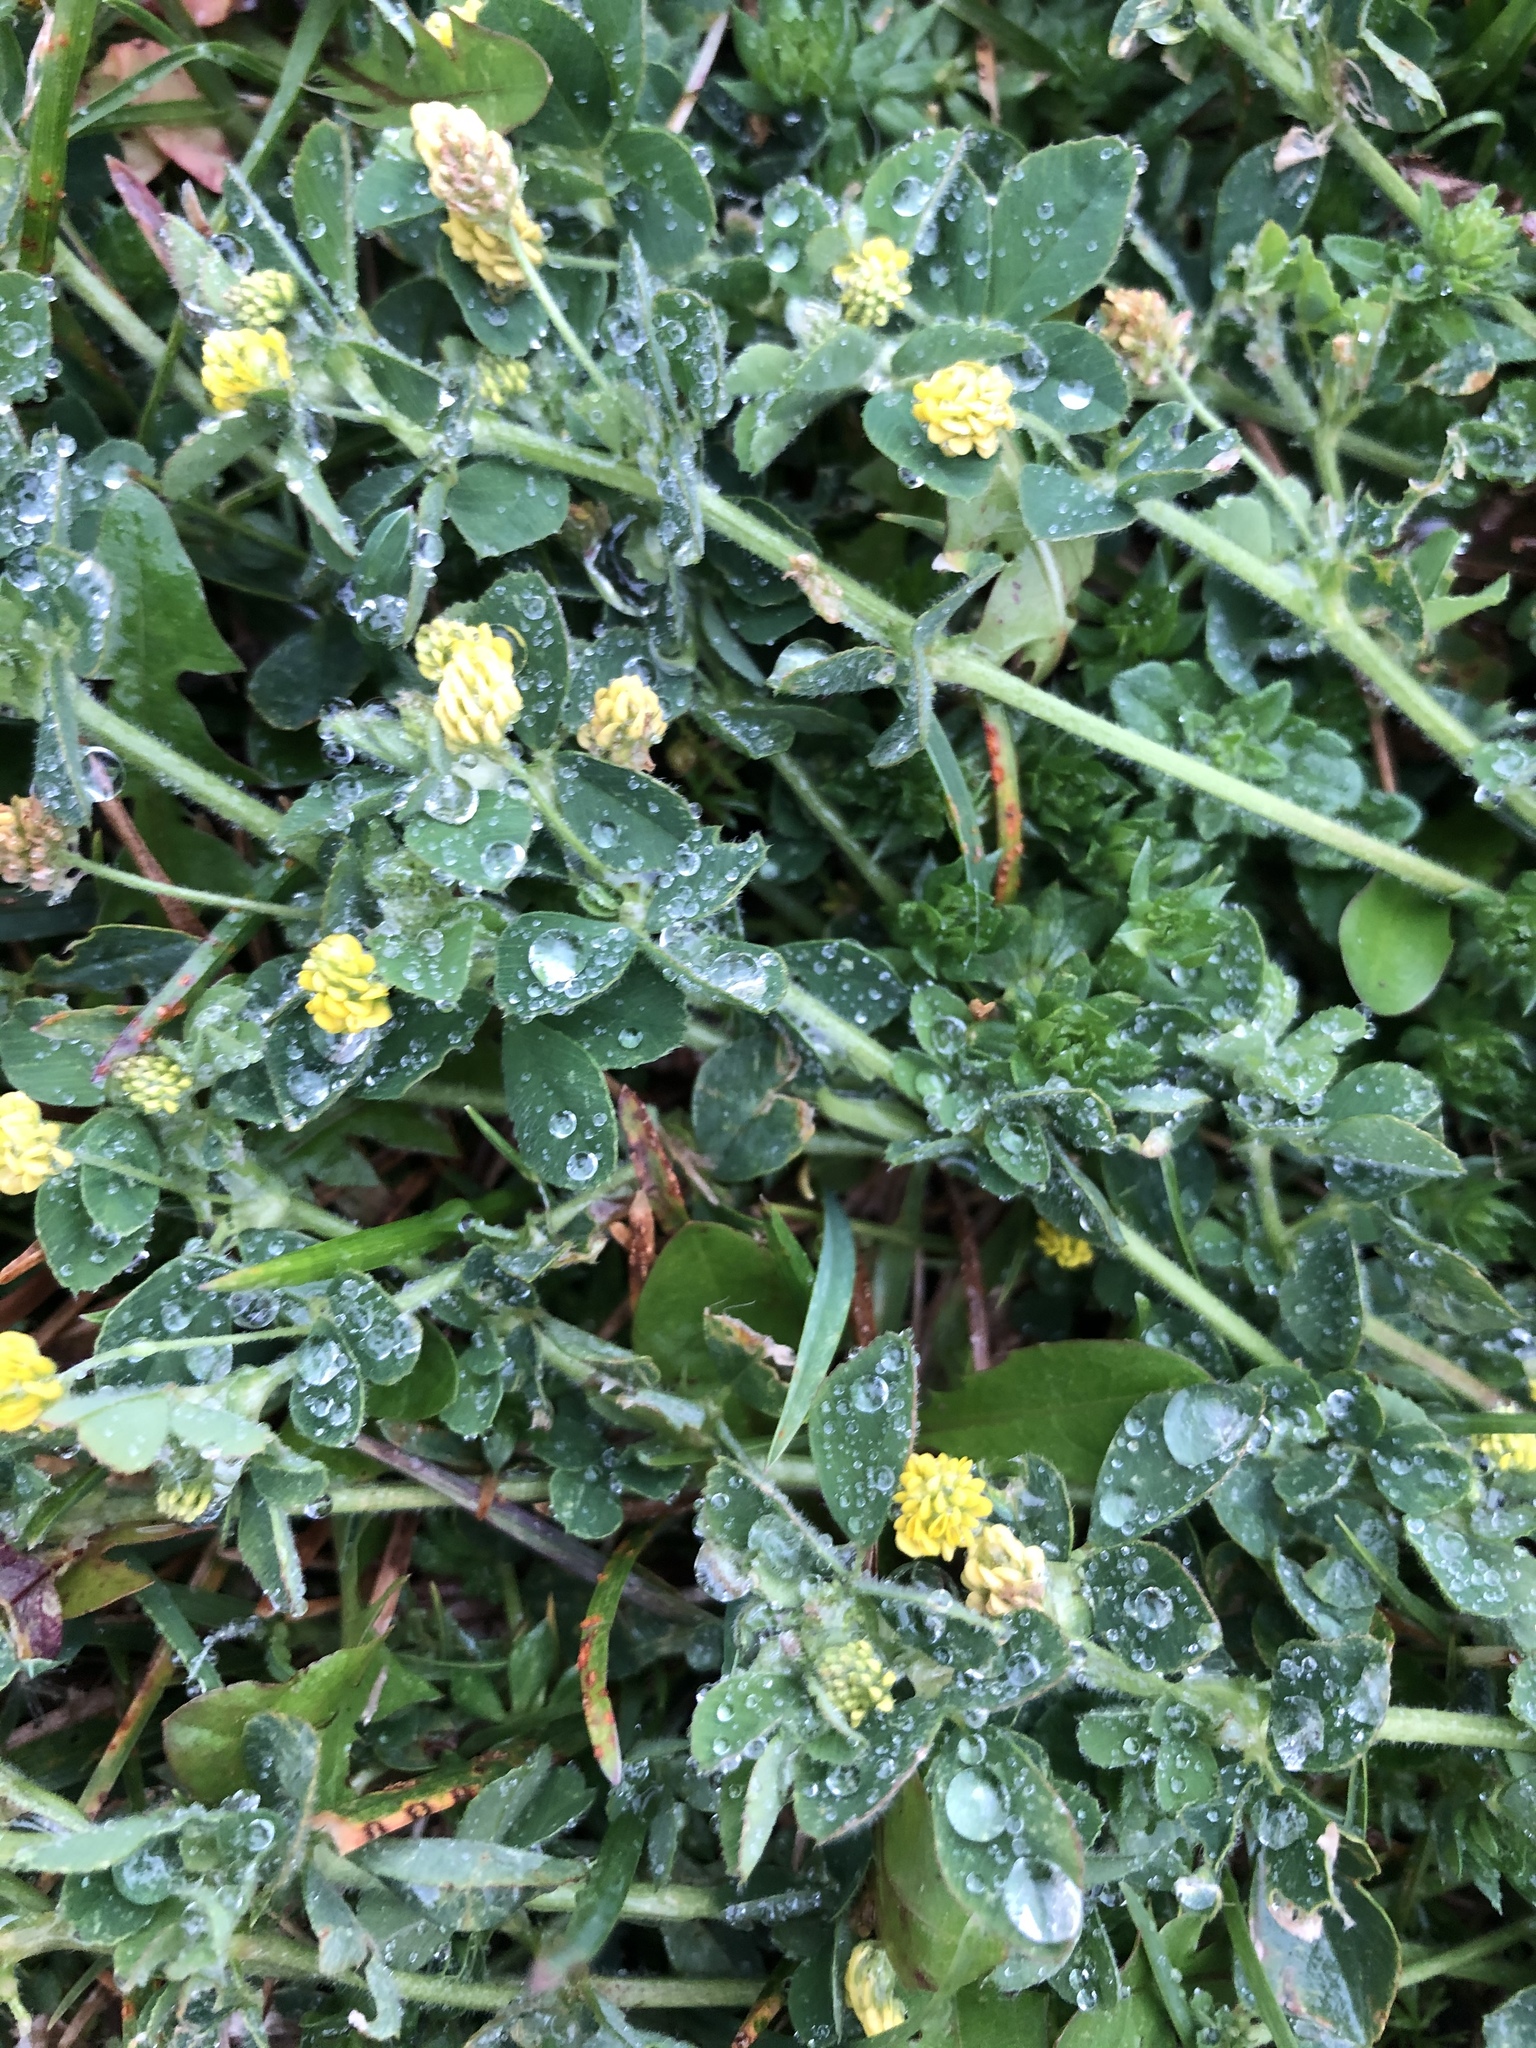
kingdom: Plantae
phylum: Tracheophyta
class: Magnoliopsida
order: Fabales
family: Fabaceae
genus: Medicago
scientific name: Medicago lupulina
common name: Black medick
